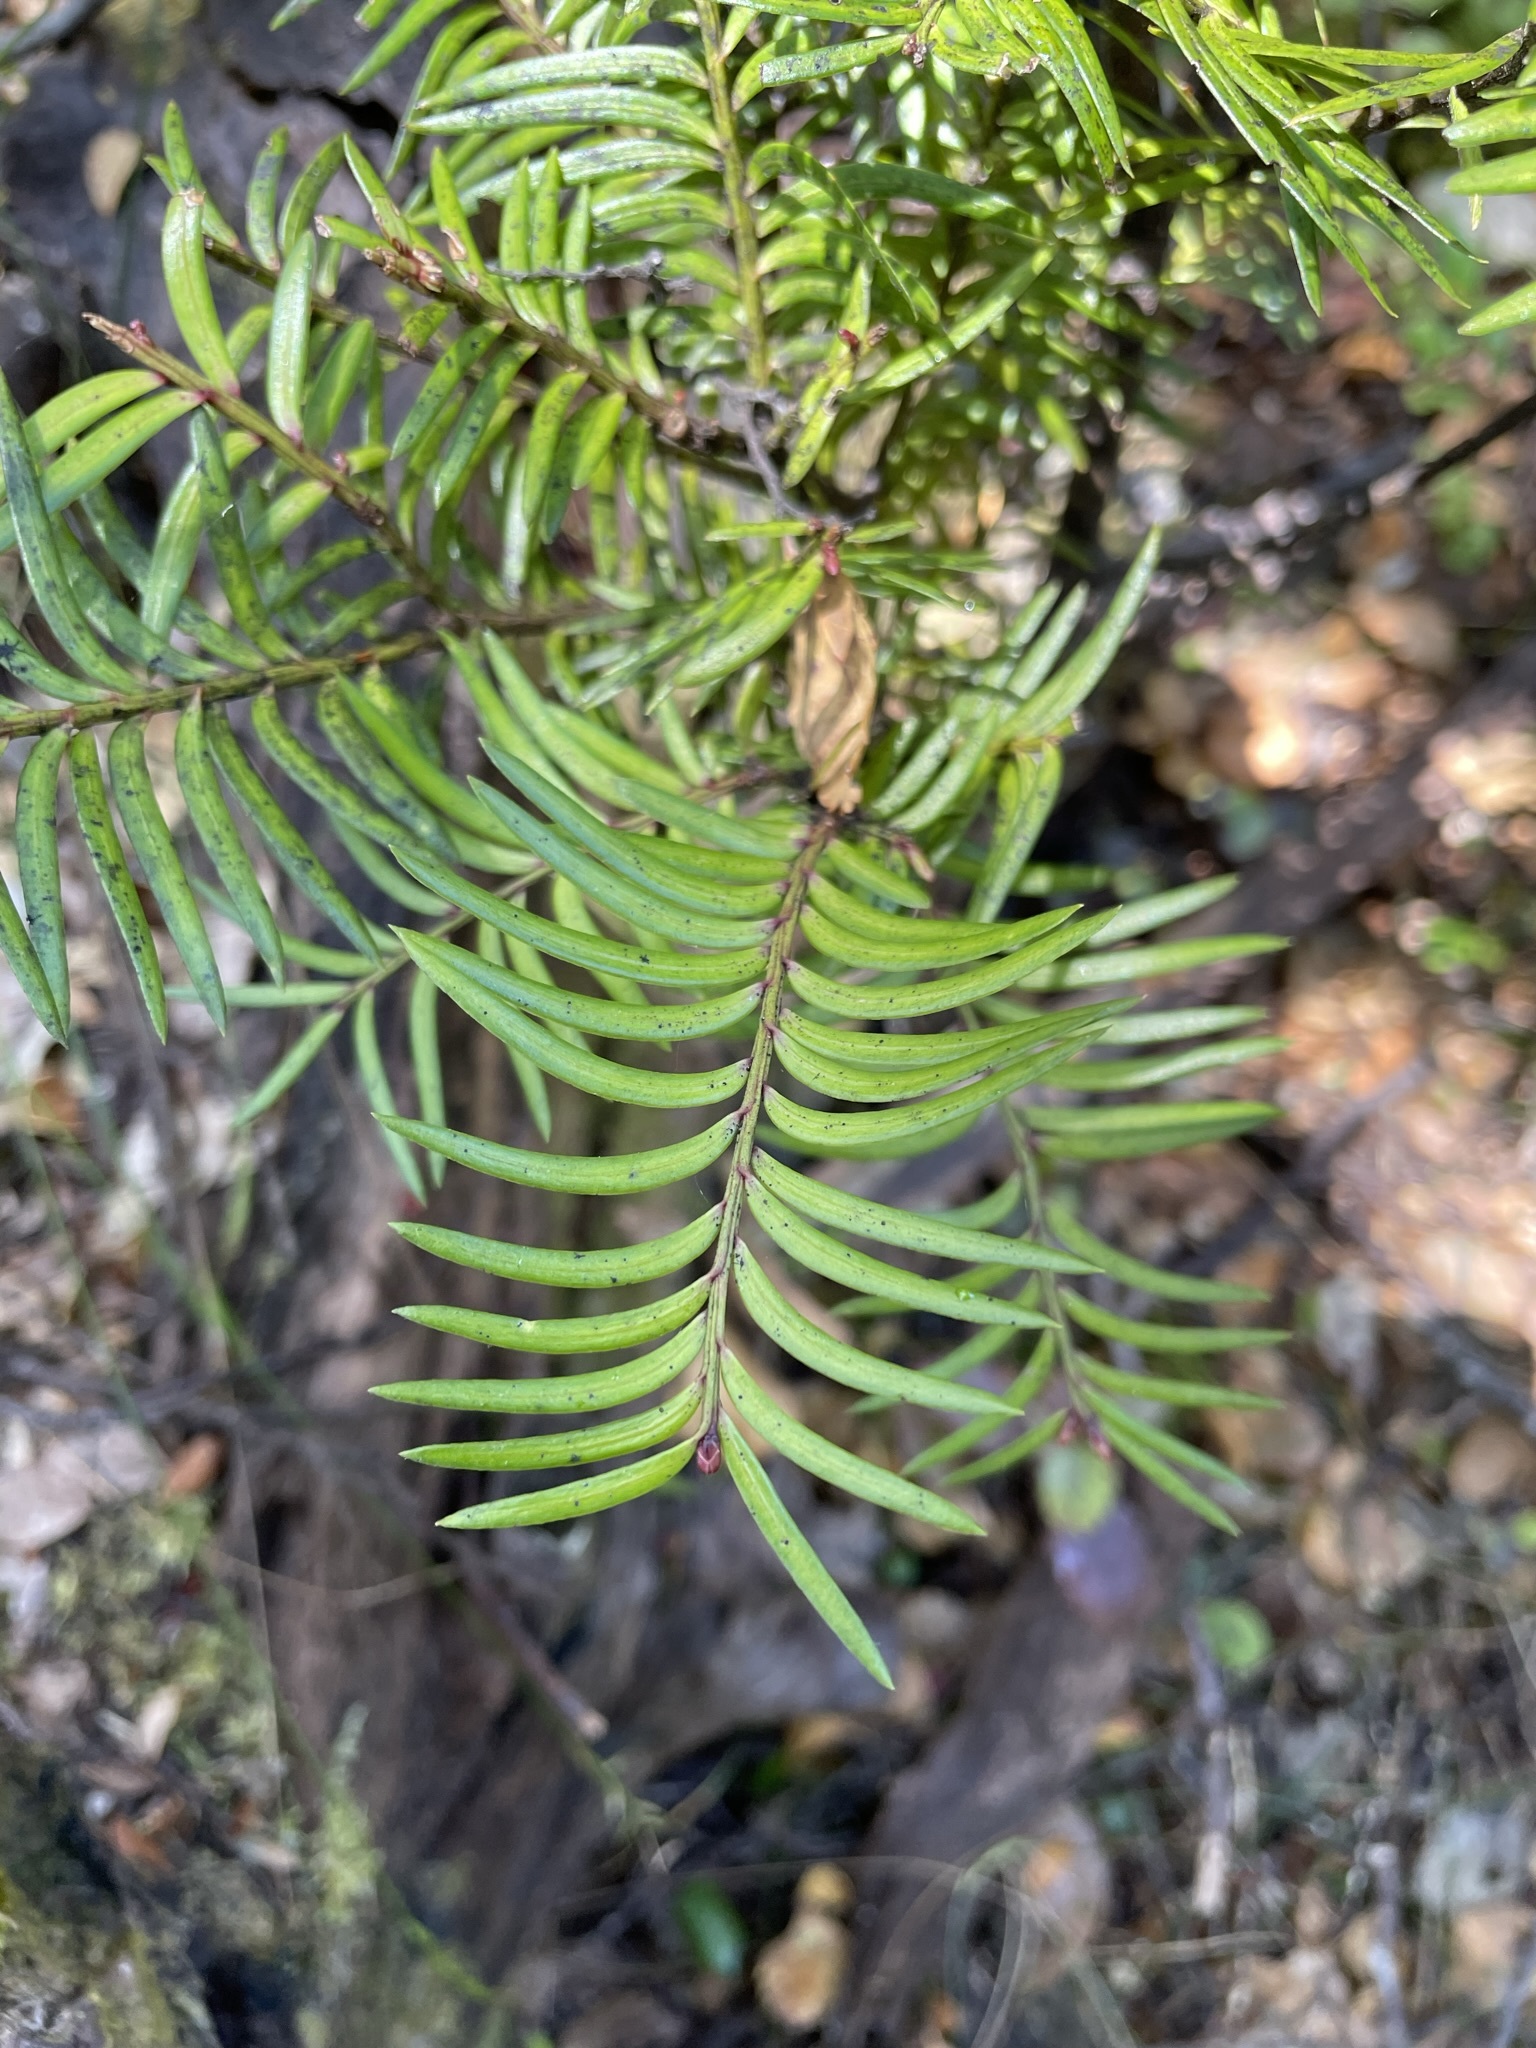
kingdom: Plantae
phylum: Tracheophyta
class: Pinopsida
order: Pinales
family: Podocarpaceae
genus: Prumnopitys
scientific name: Prumnopitys ferruginea
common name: Brown pine
